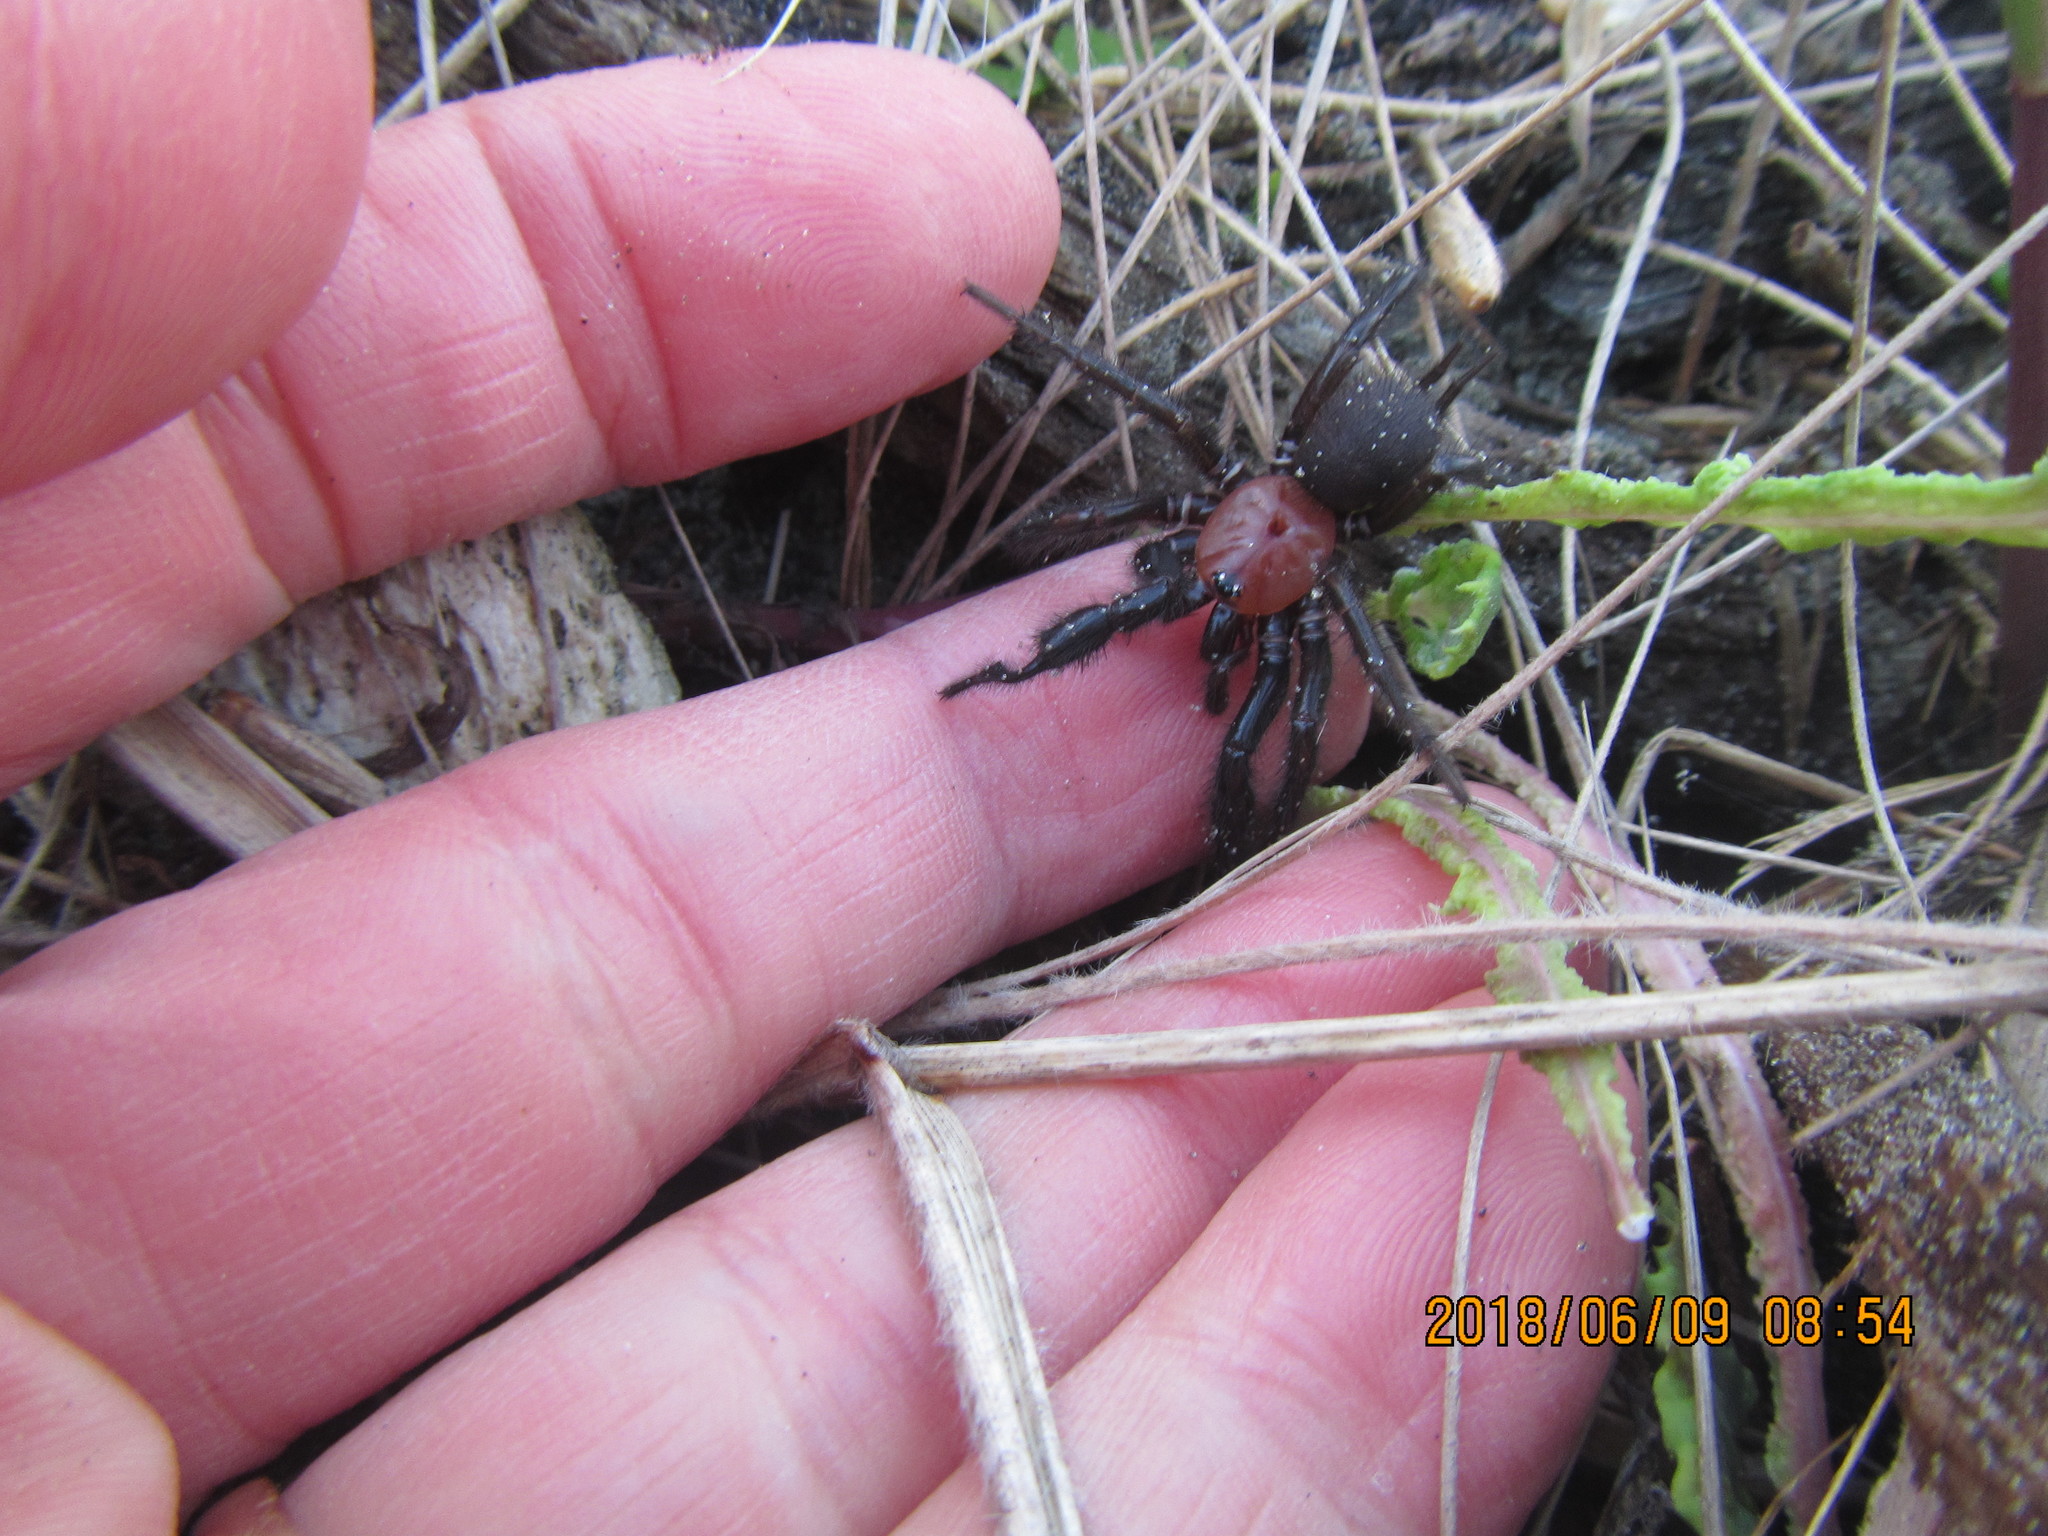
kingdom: Animalia
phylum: Arthropoda
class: Arachnida
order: Araneae
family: Porrhothelidae
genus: Porrhothele
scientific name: Porrhothele antipodiana
